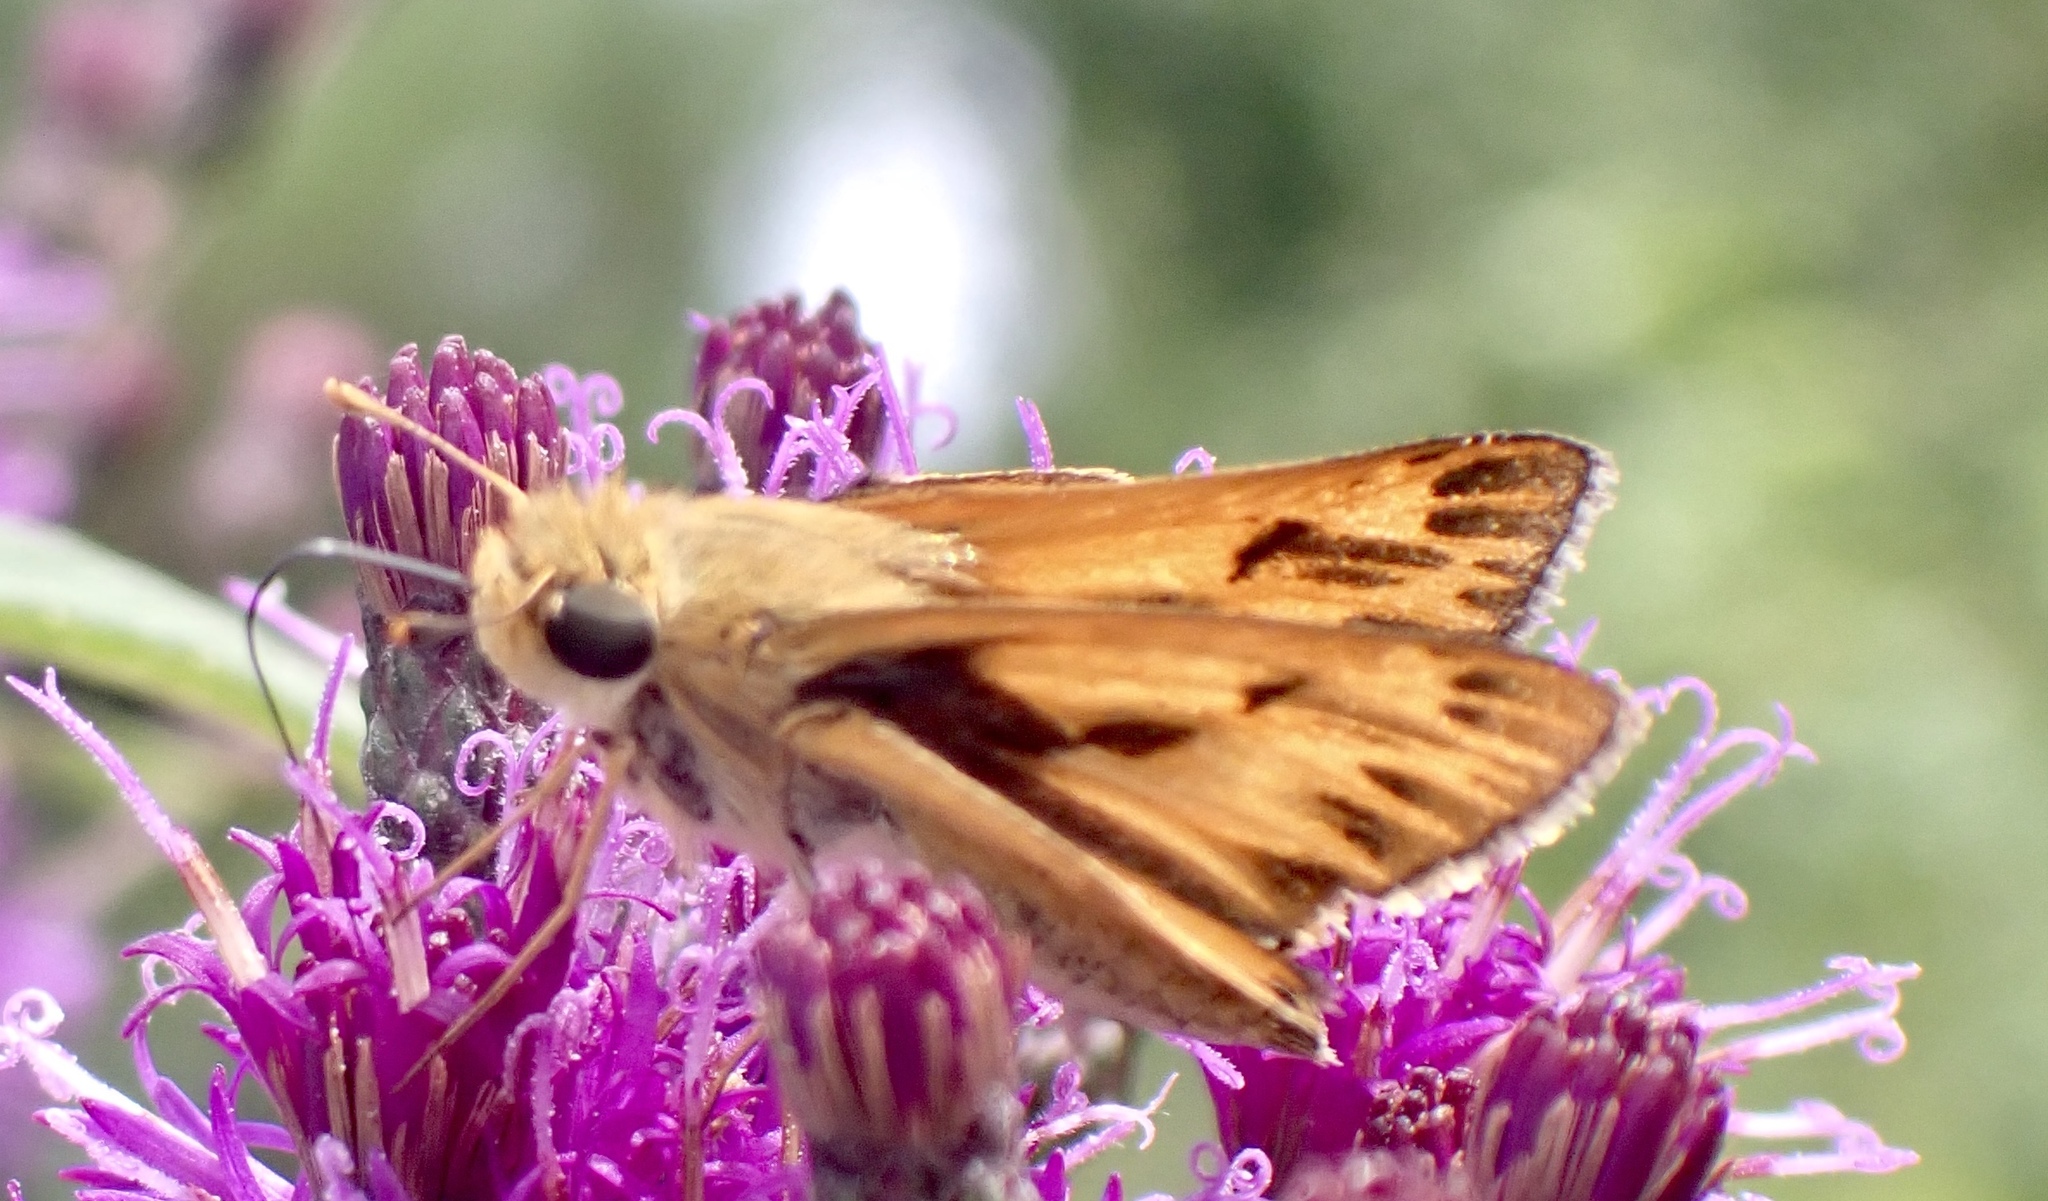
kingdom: Animalia
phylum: Arthropoda
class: Insecta
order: Lepidoptera
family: Hesperiidae
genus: Hylephila
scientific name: Hylephila phyleus
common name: Fiery skipper
